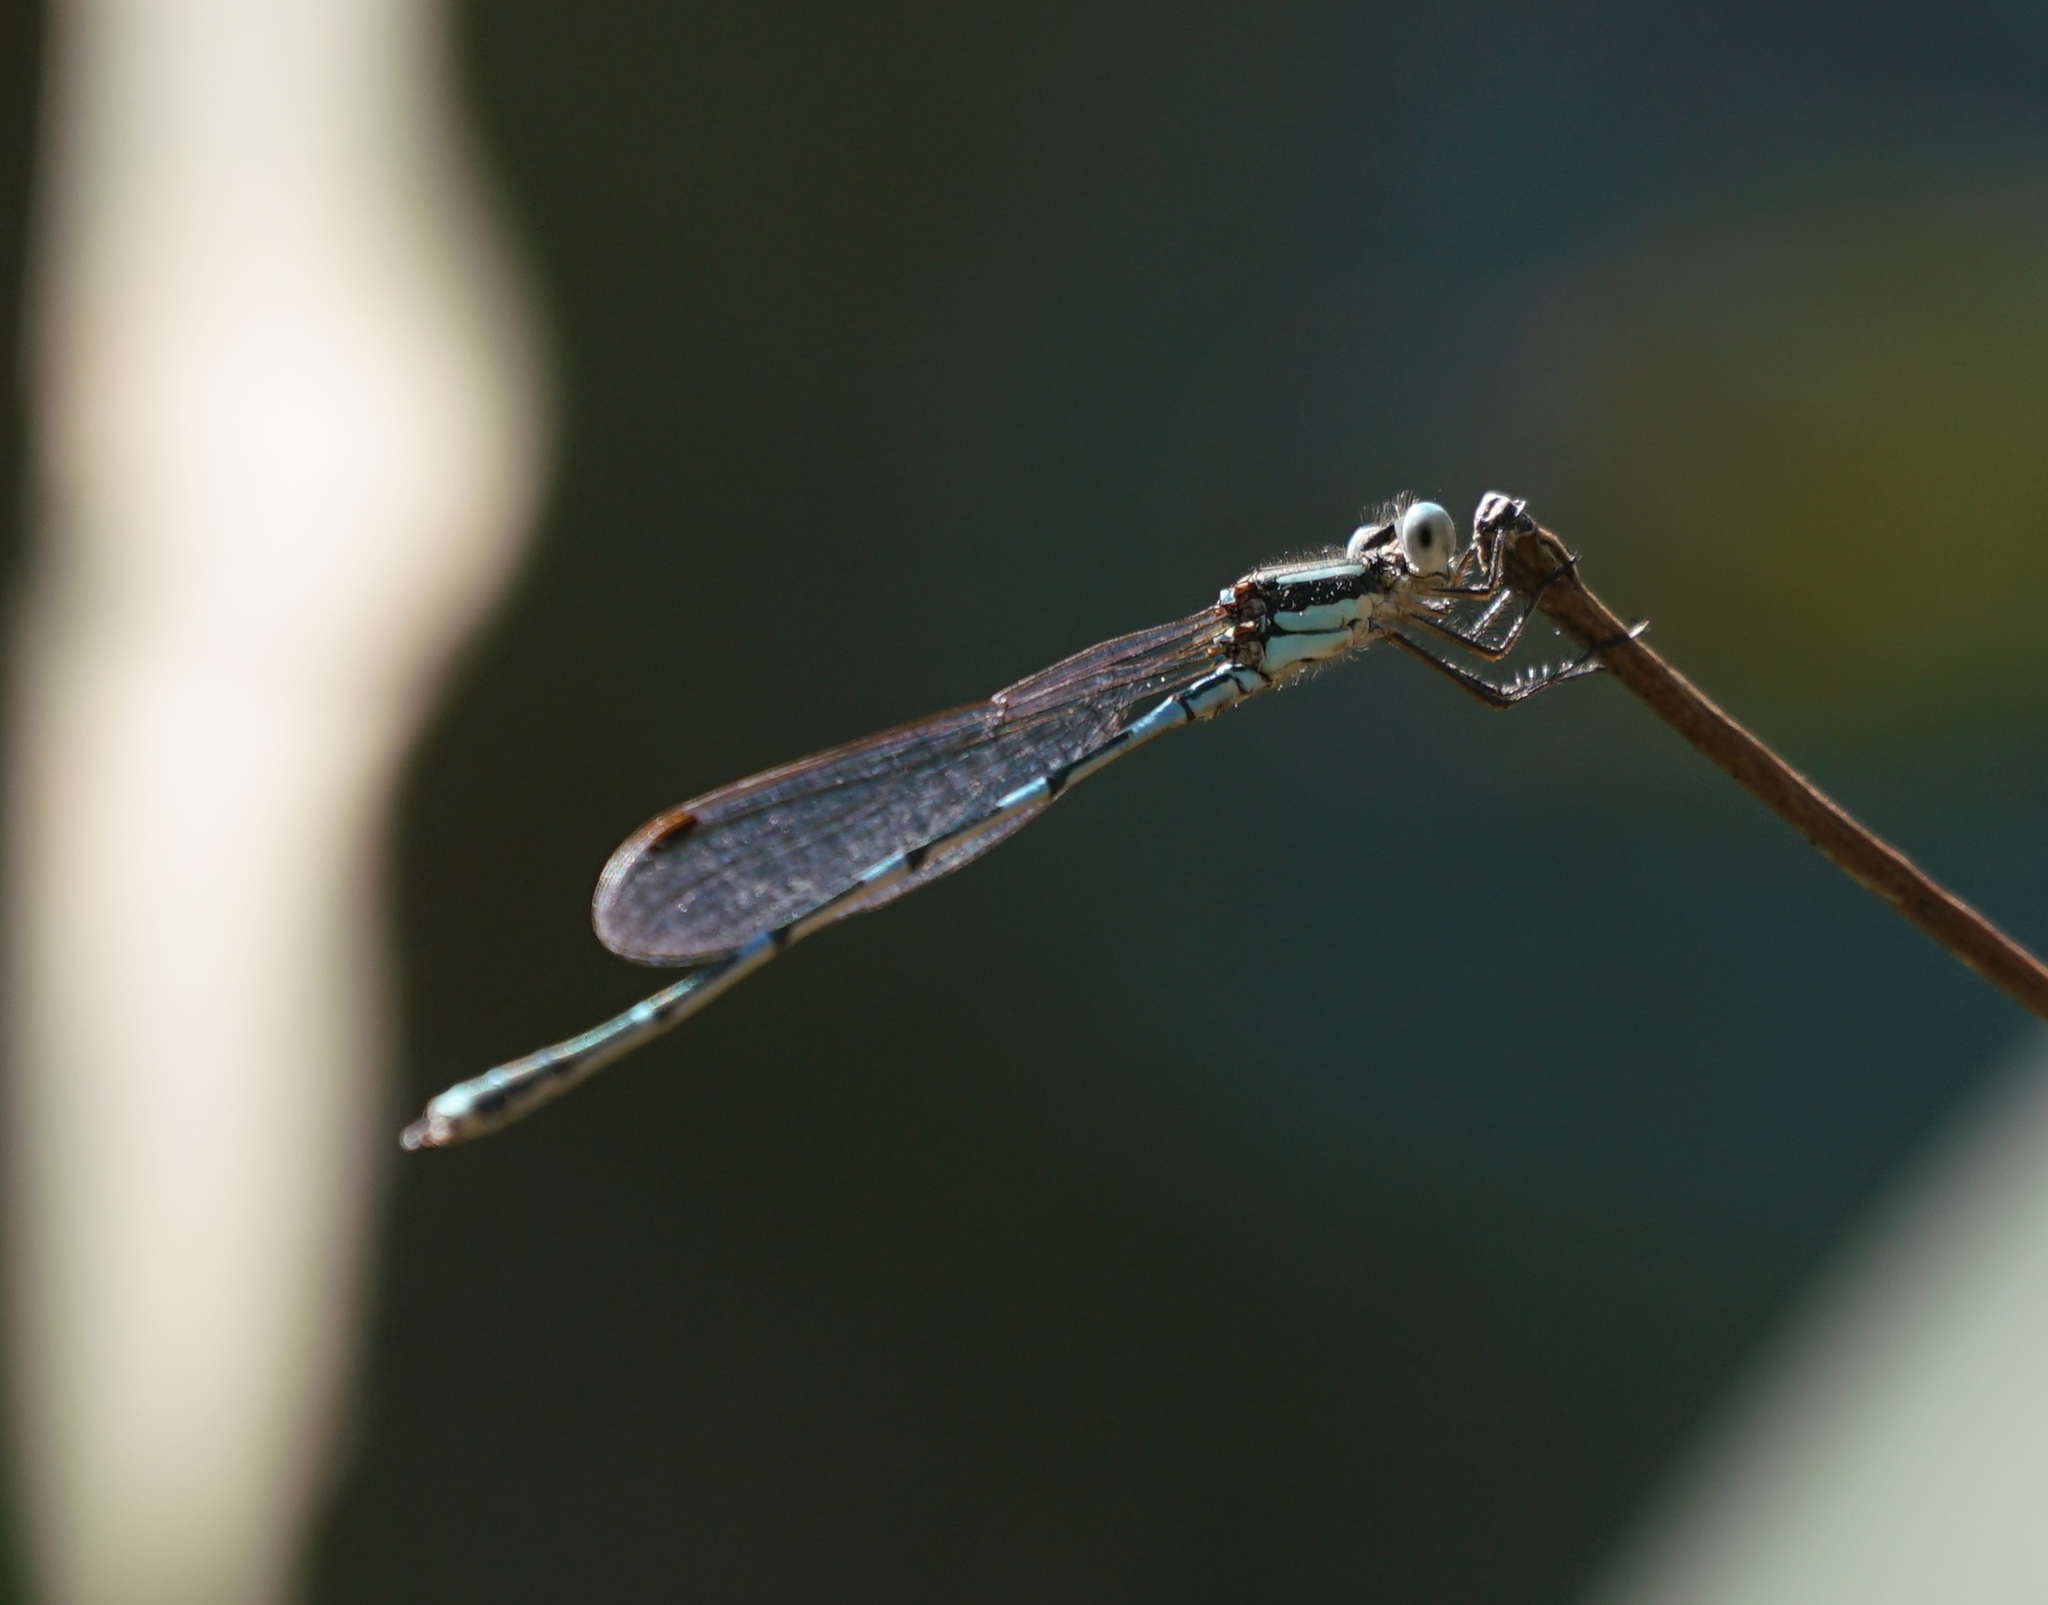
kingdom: Animalia
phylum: Arthropoda
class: Insecta
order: Odonata
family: Lestidae
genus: Austrolestes
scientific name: Austrolestes leda
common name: Wandering ringtail
